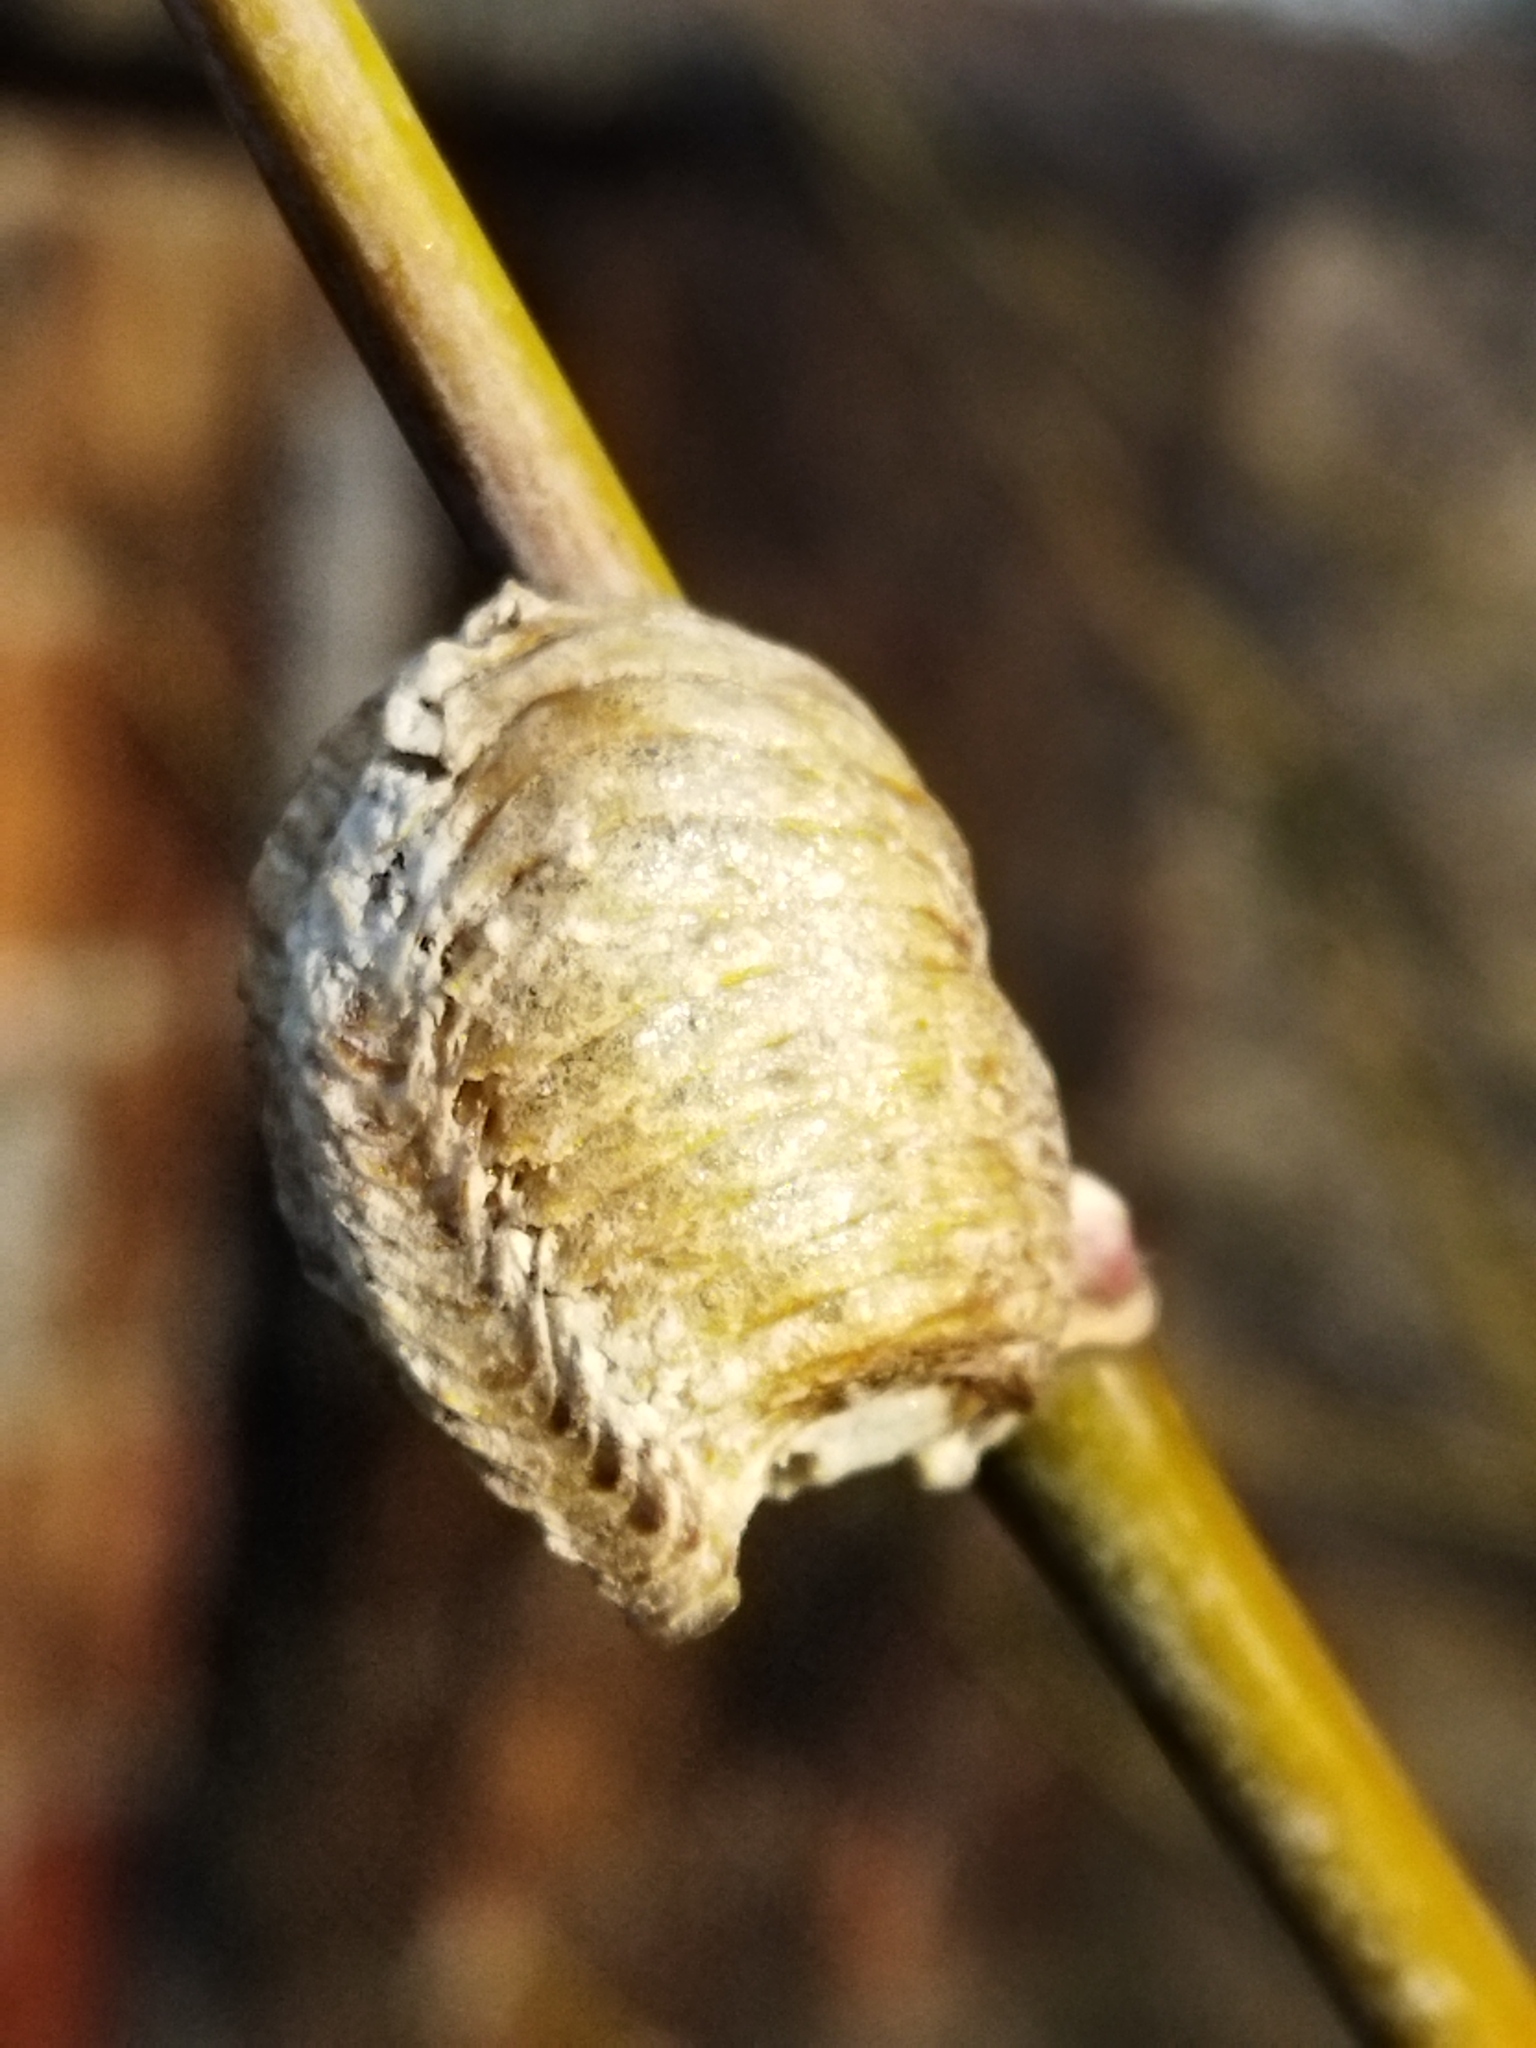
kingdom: Animalia
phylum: Arthropoda
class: Insecta
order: Mantodea
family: Mantidae
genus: Hierodula
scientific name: Hierodula transcaucasica
